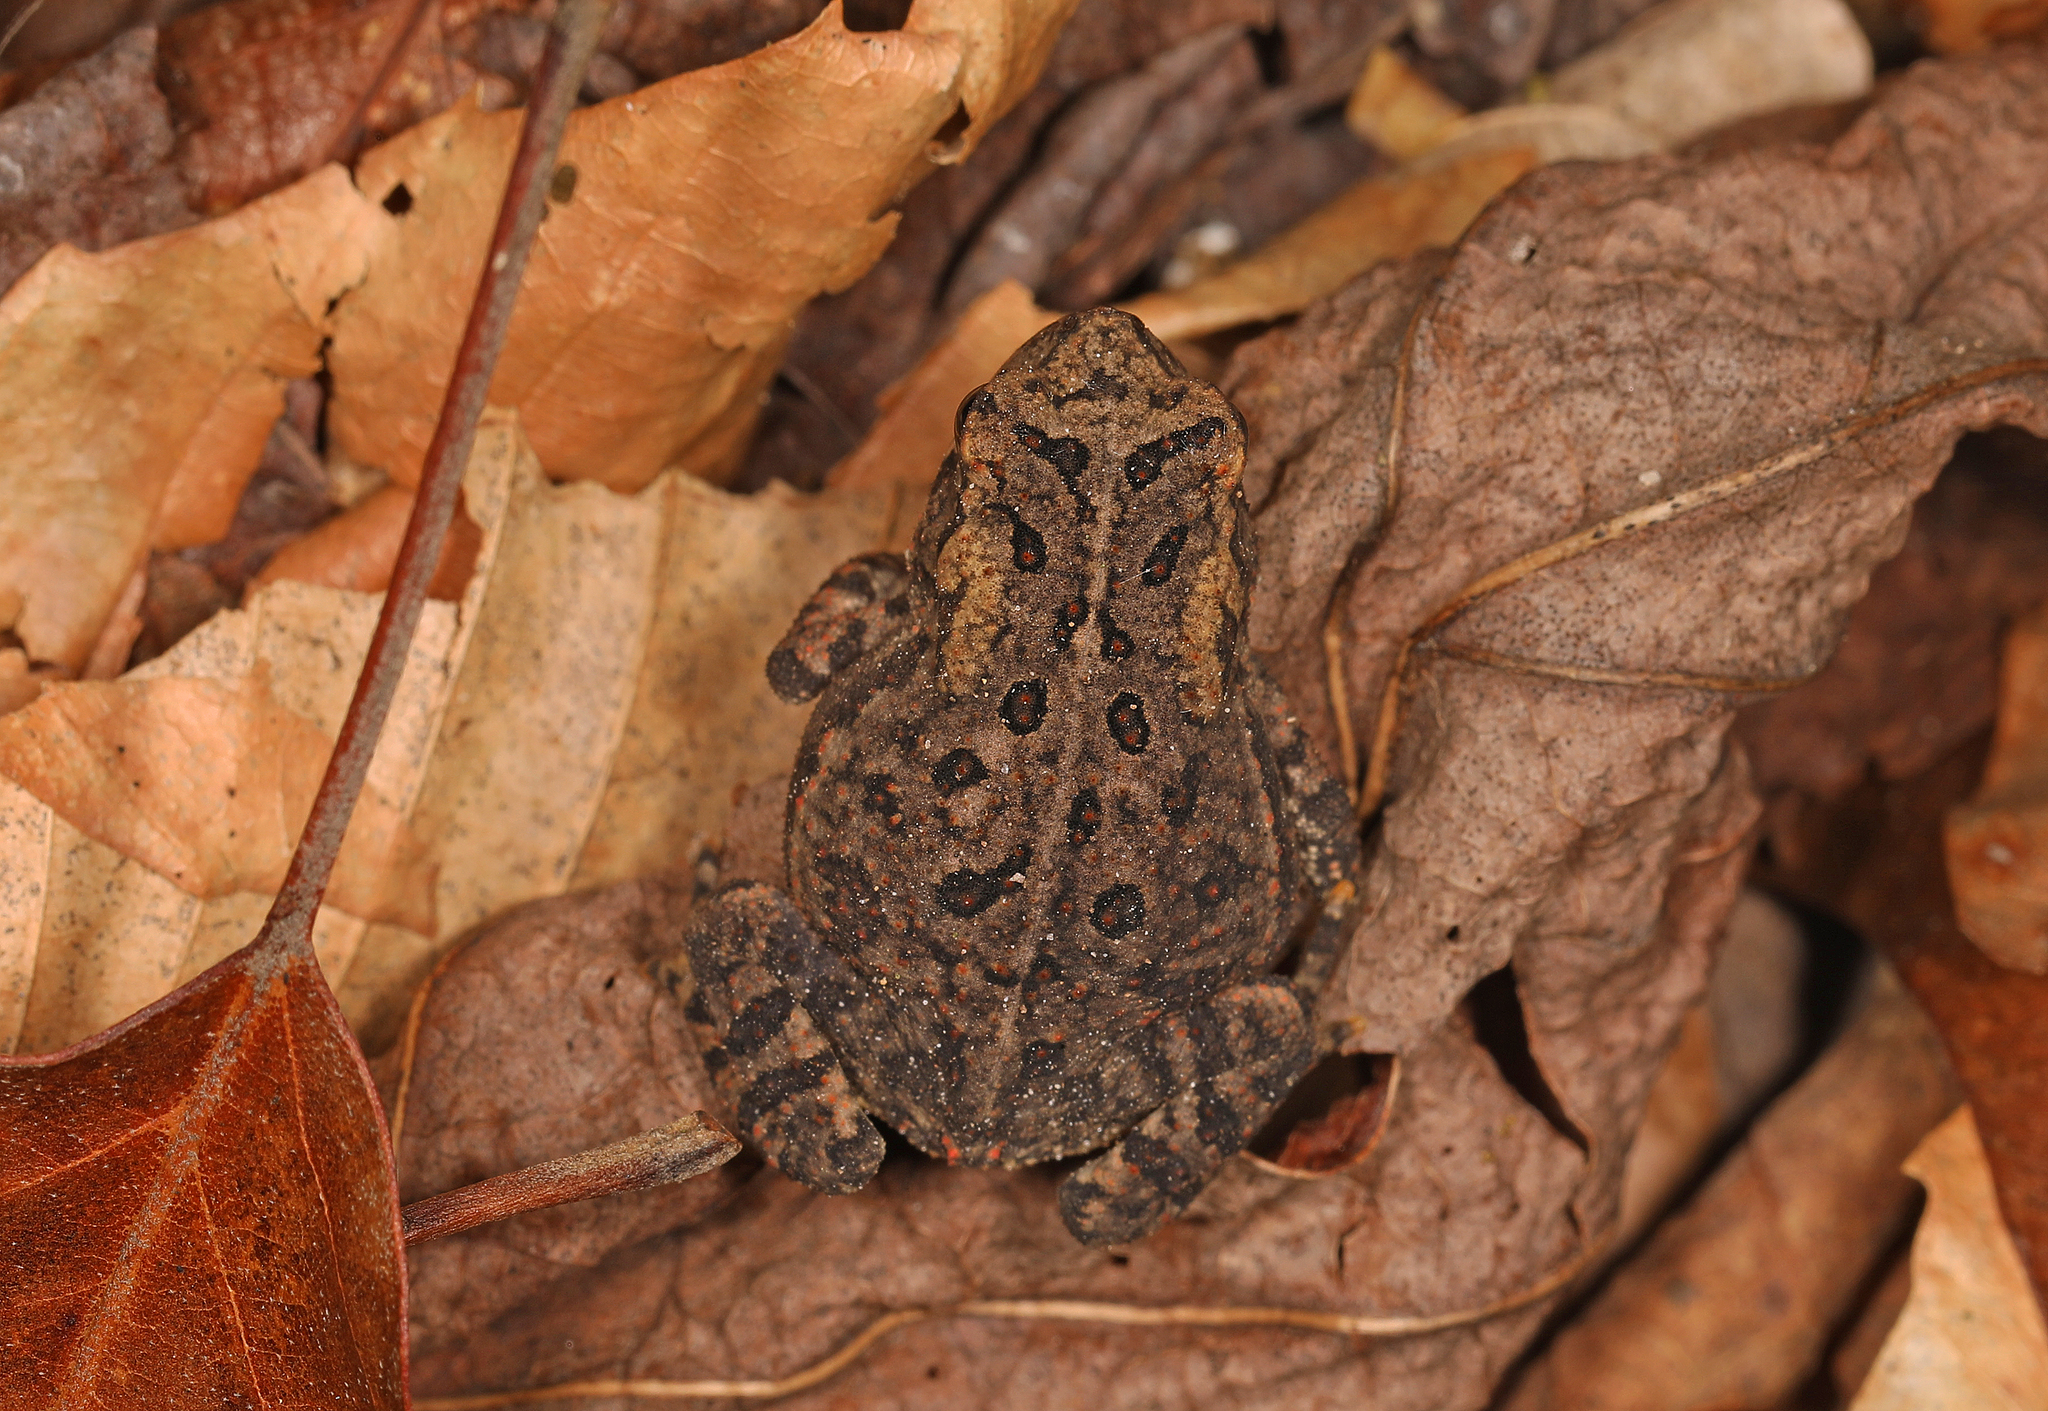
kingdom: Animalia
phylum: Chordata
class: Amphibia
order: Anura
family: Bufonidae
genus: Anaxyrus
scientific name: Anaxyrus fowleri
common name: Fowler's toad
